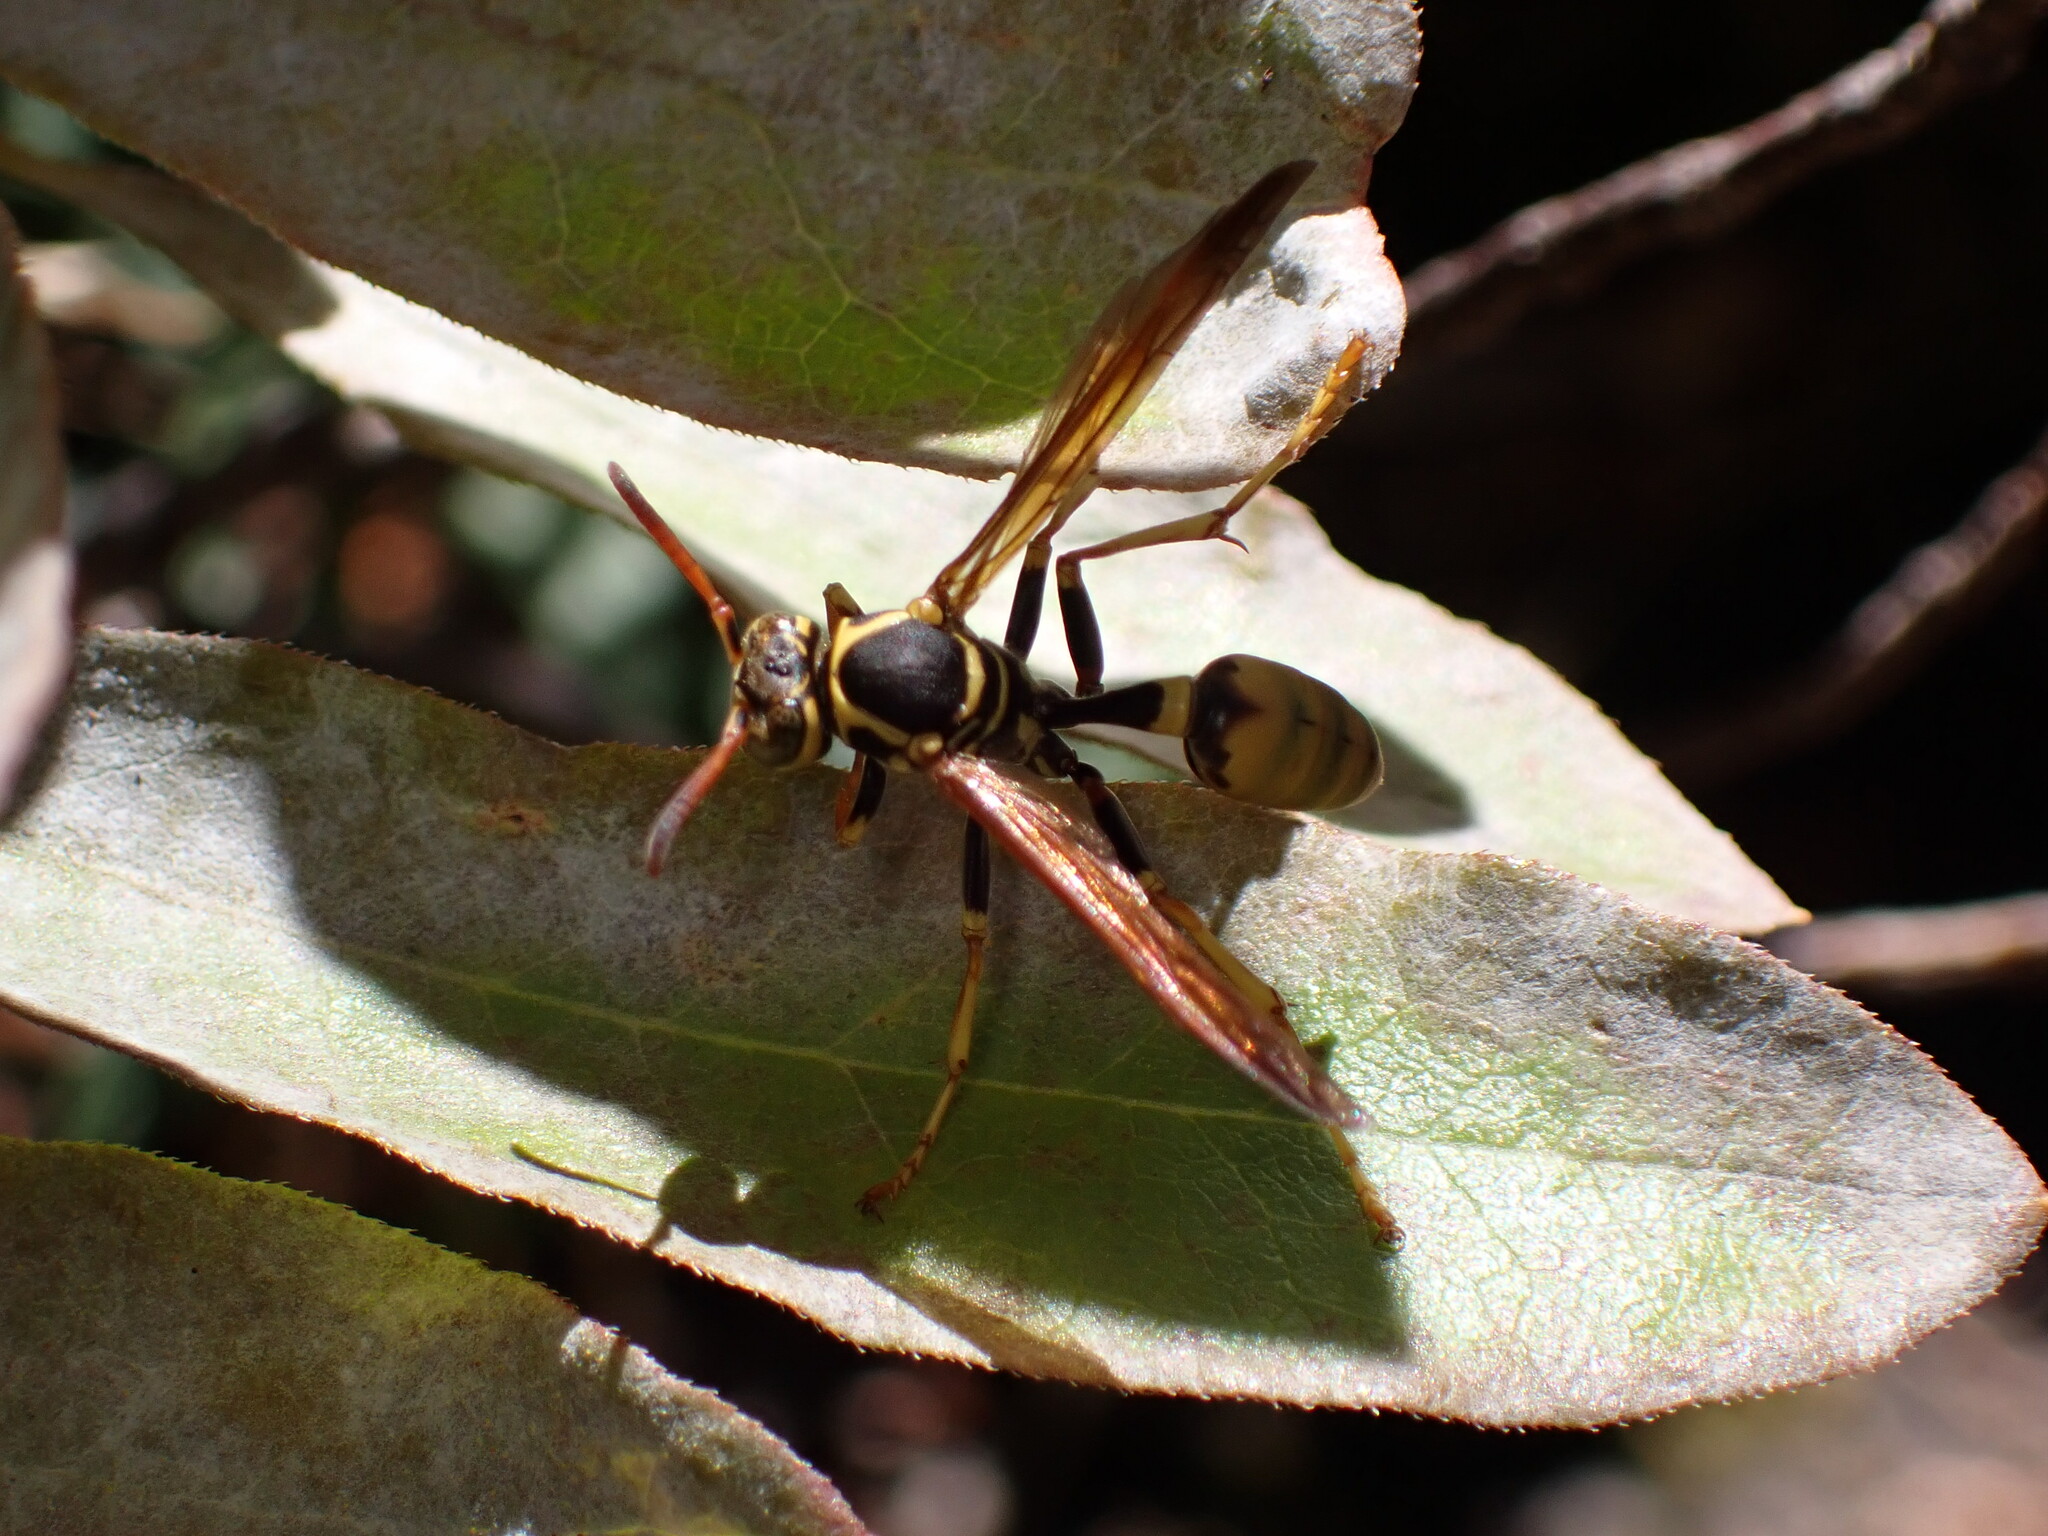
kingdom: Animalia
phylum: Arthropoda
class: Insecta
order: Hymenoptera
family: Vespidae
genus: Mischocyttarus
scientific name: Mischocyttarus flavitarsis
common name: Wasp
